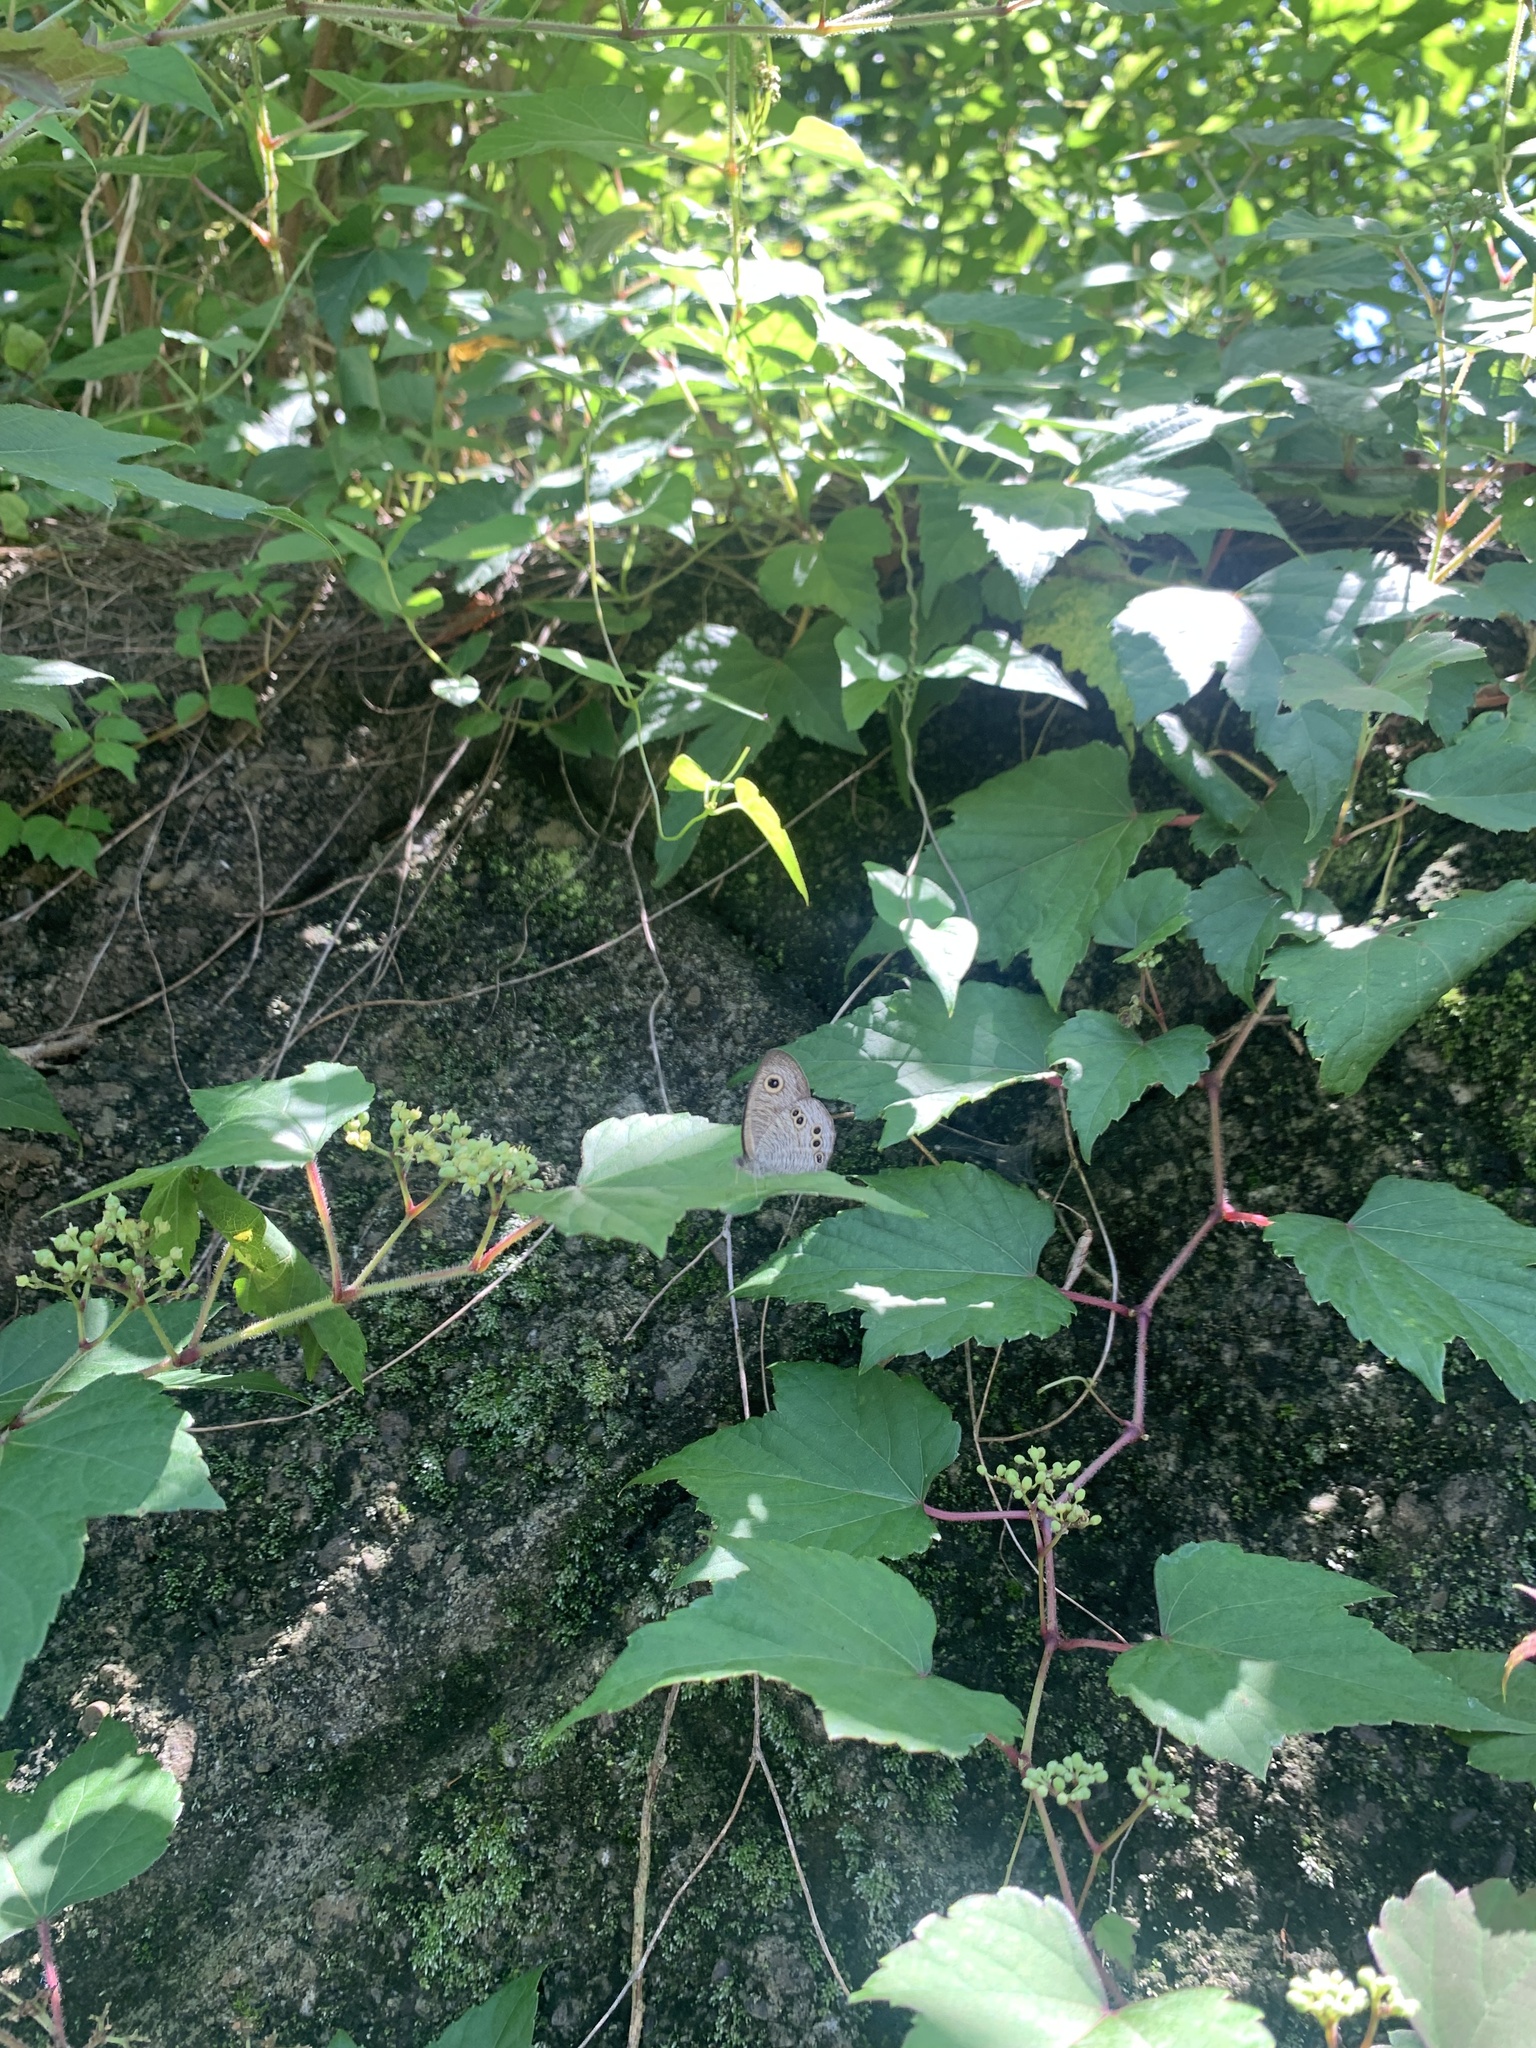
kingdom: Animalia
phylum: Arthropoda
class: Insecta
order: Lepidoptera
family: Nymphalidae
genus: Ypthima
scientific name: Ypthima argus
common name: Common fivering
